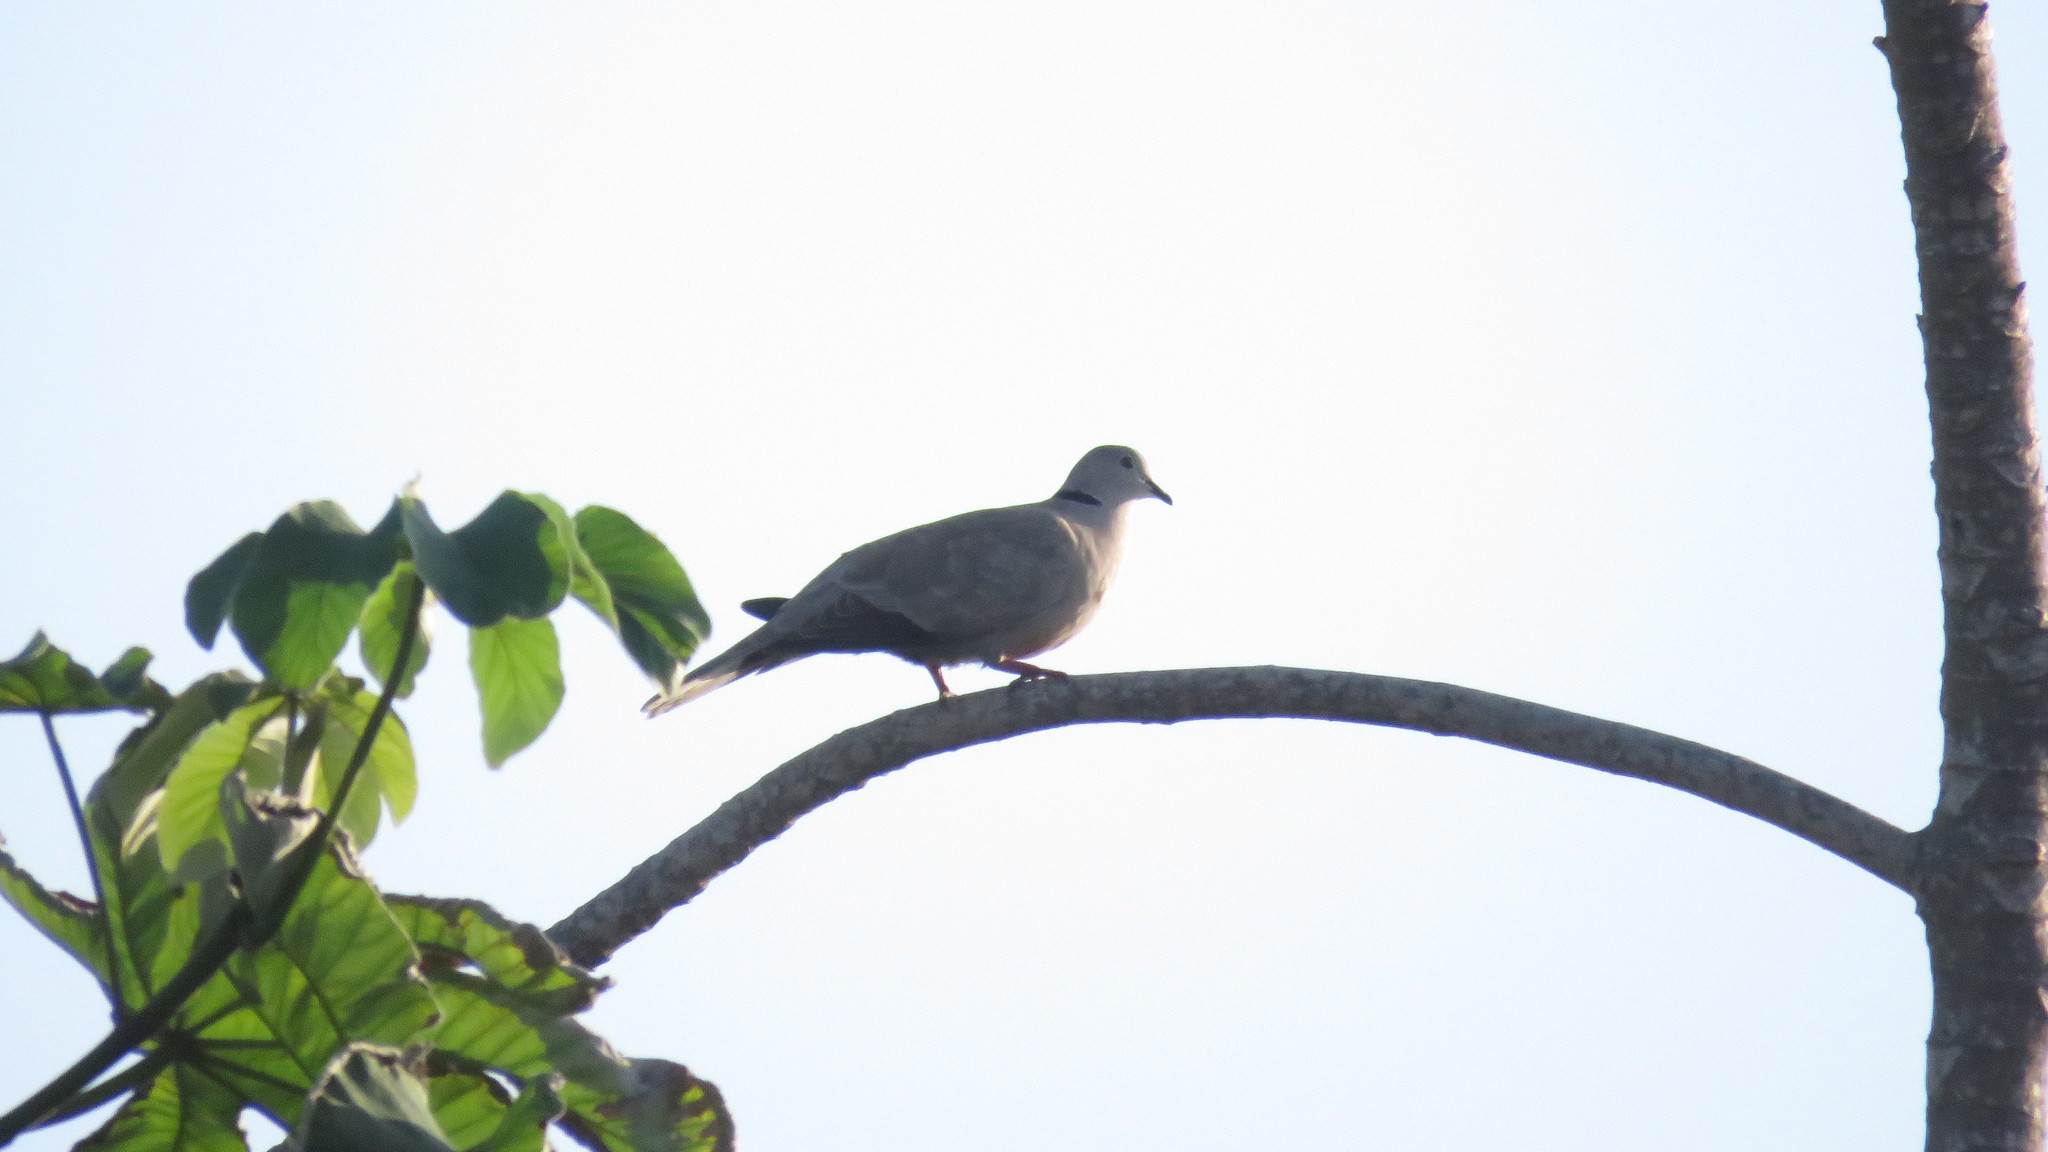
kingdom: Animalia
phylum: Chordata
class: Aves
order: Columbiformes
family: Columbidae
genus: Streptopelia
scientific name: Streptopelia decaocto
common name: Eurasian collared dove
